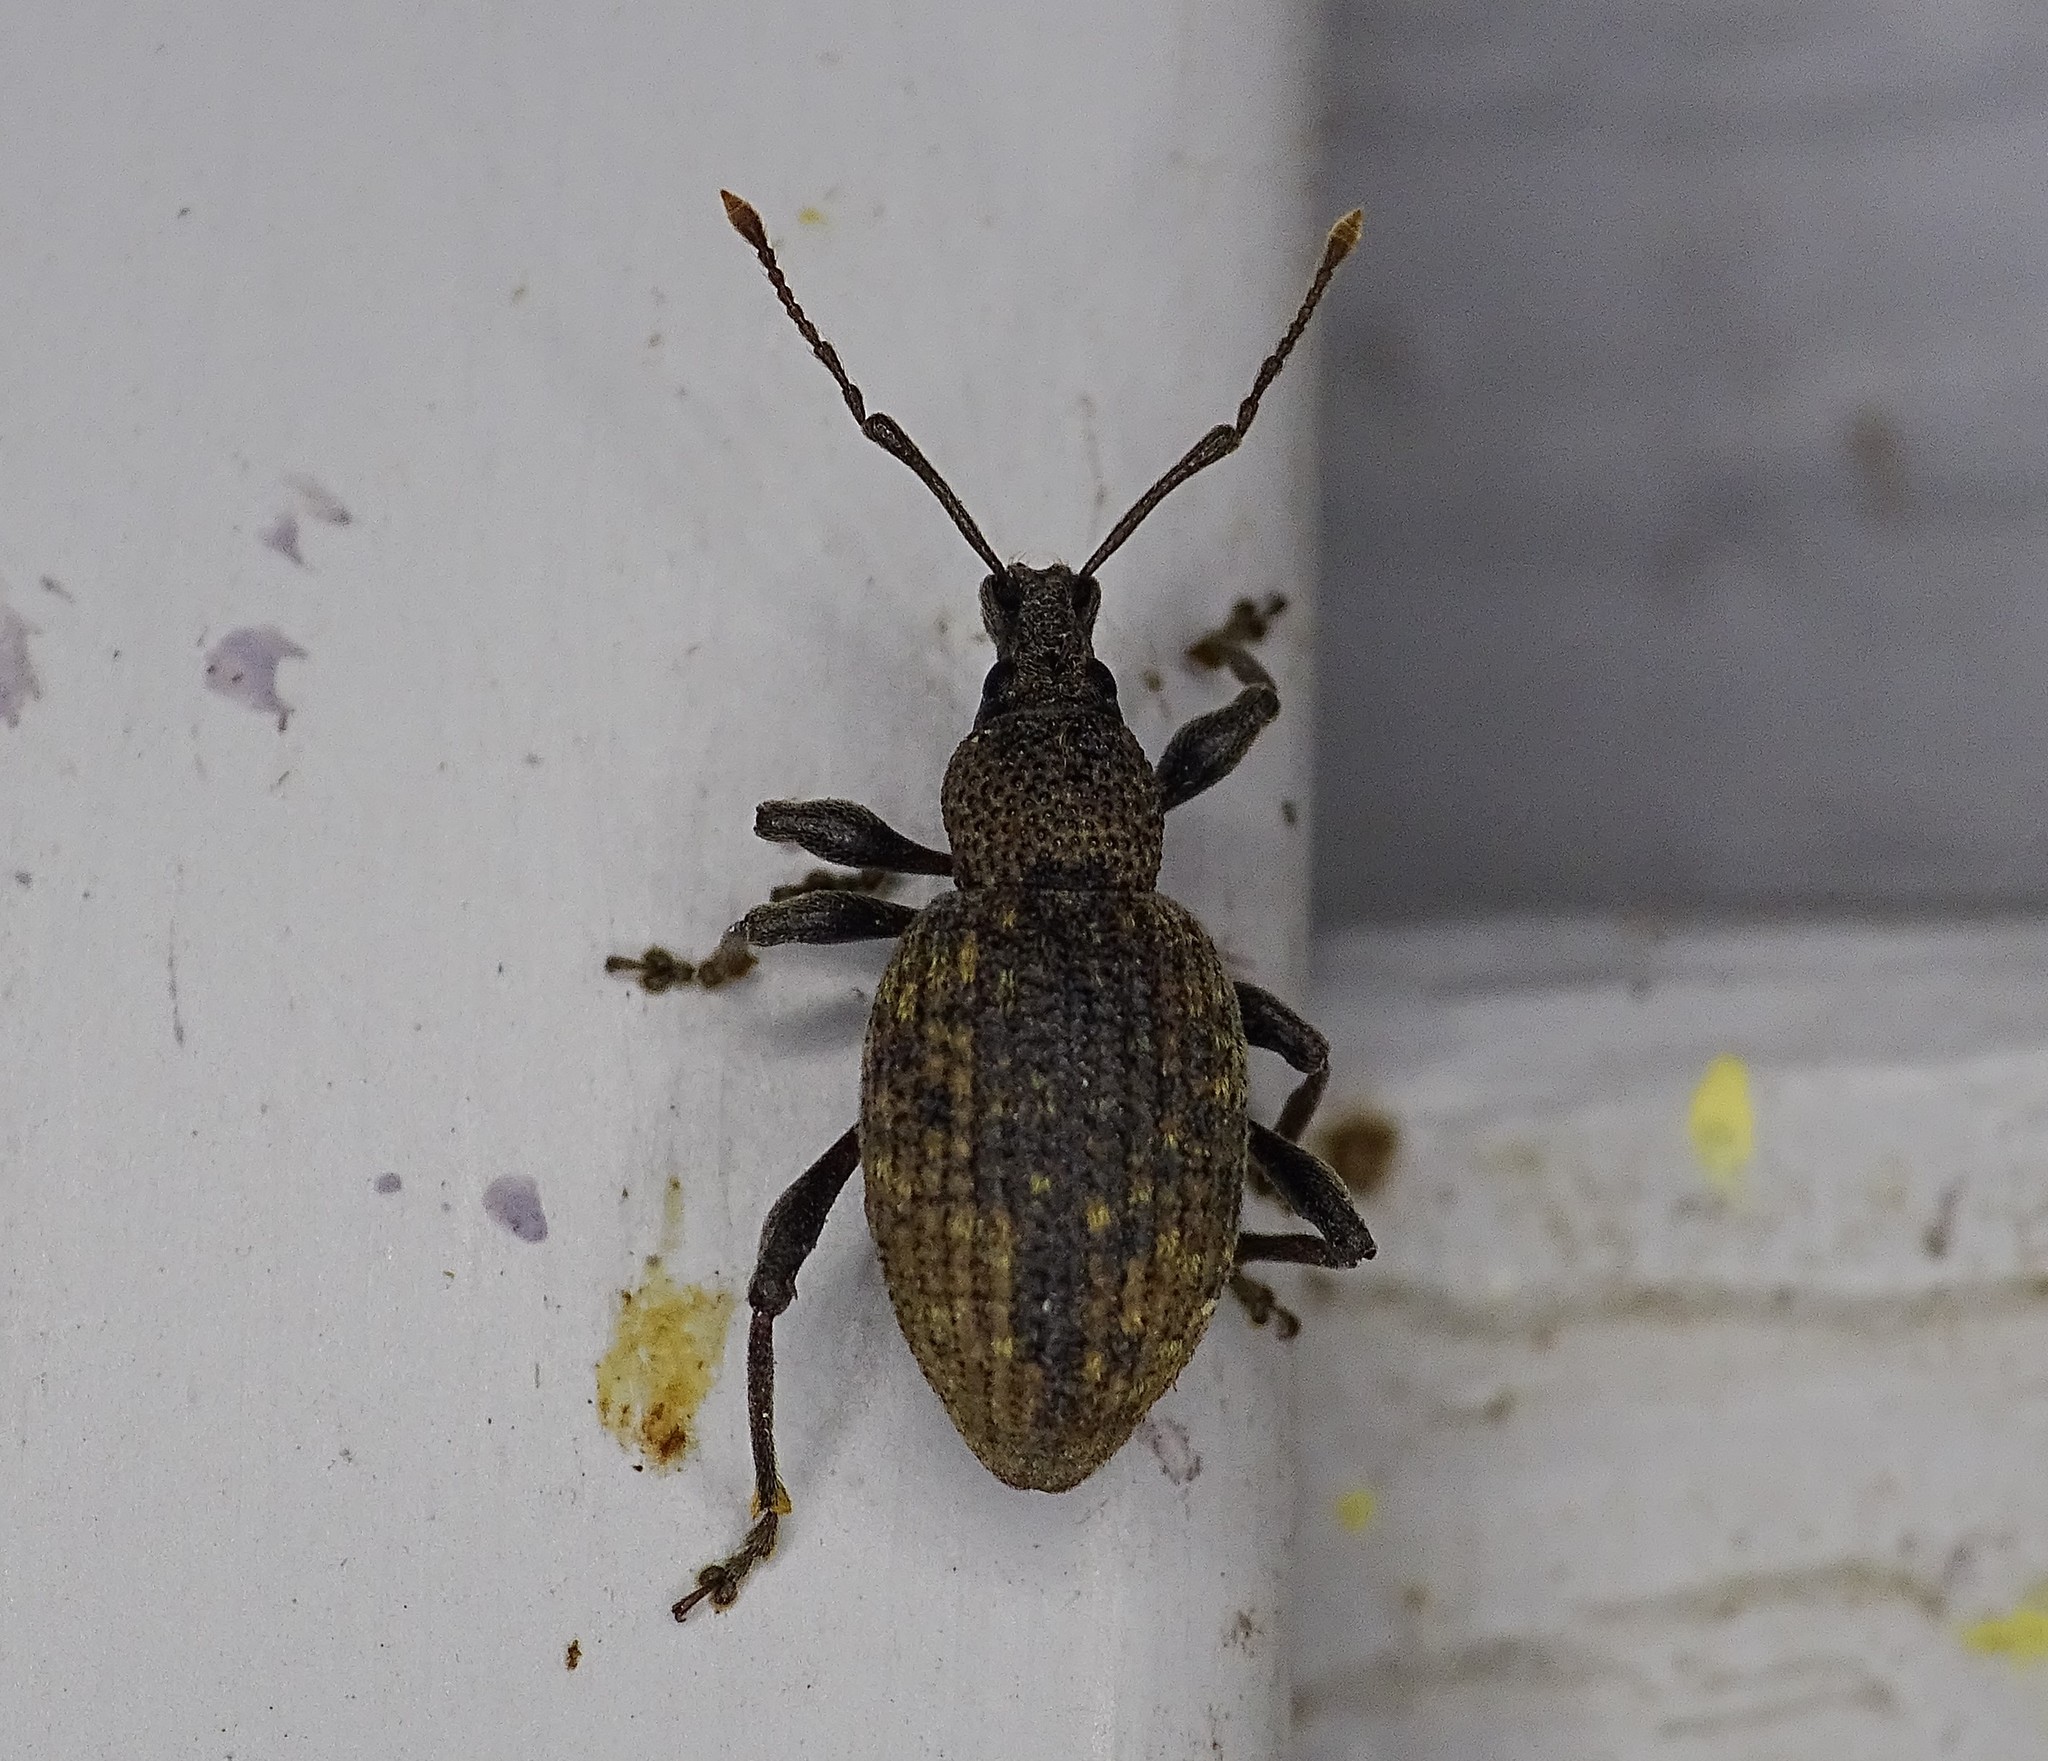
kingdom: Animalia
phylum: Arthropoda
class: Insecta
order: Coleoptera
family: Curculionidae
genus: Otiorhynchus
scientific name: Otiorhynchus sulcatus
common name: Black vine weevil
